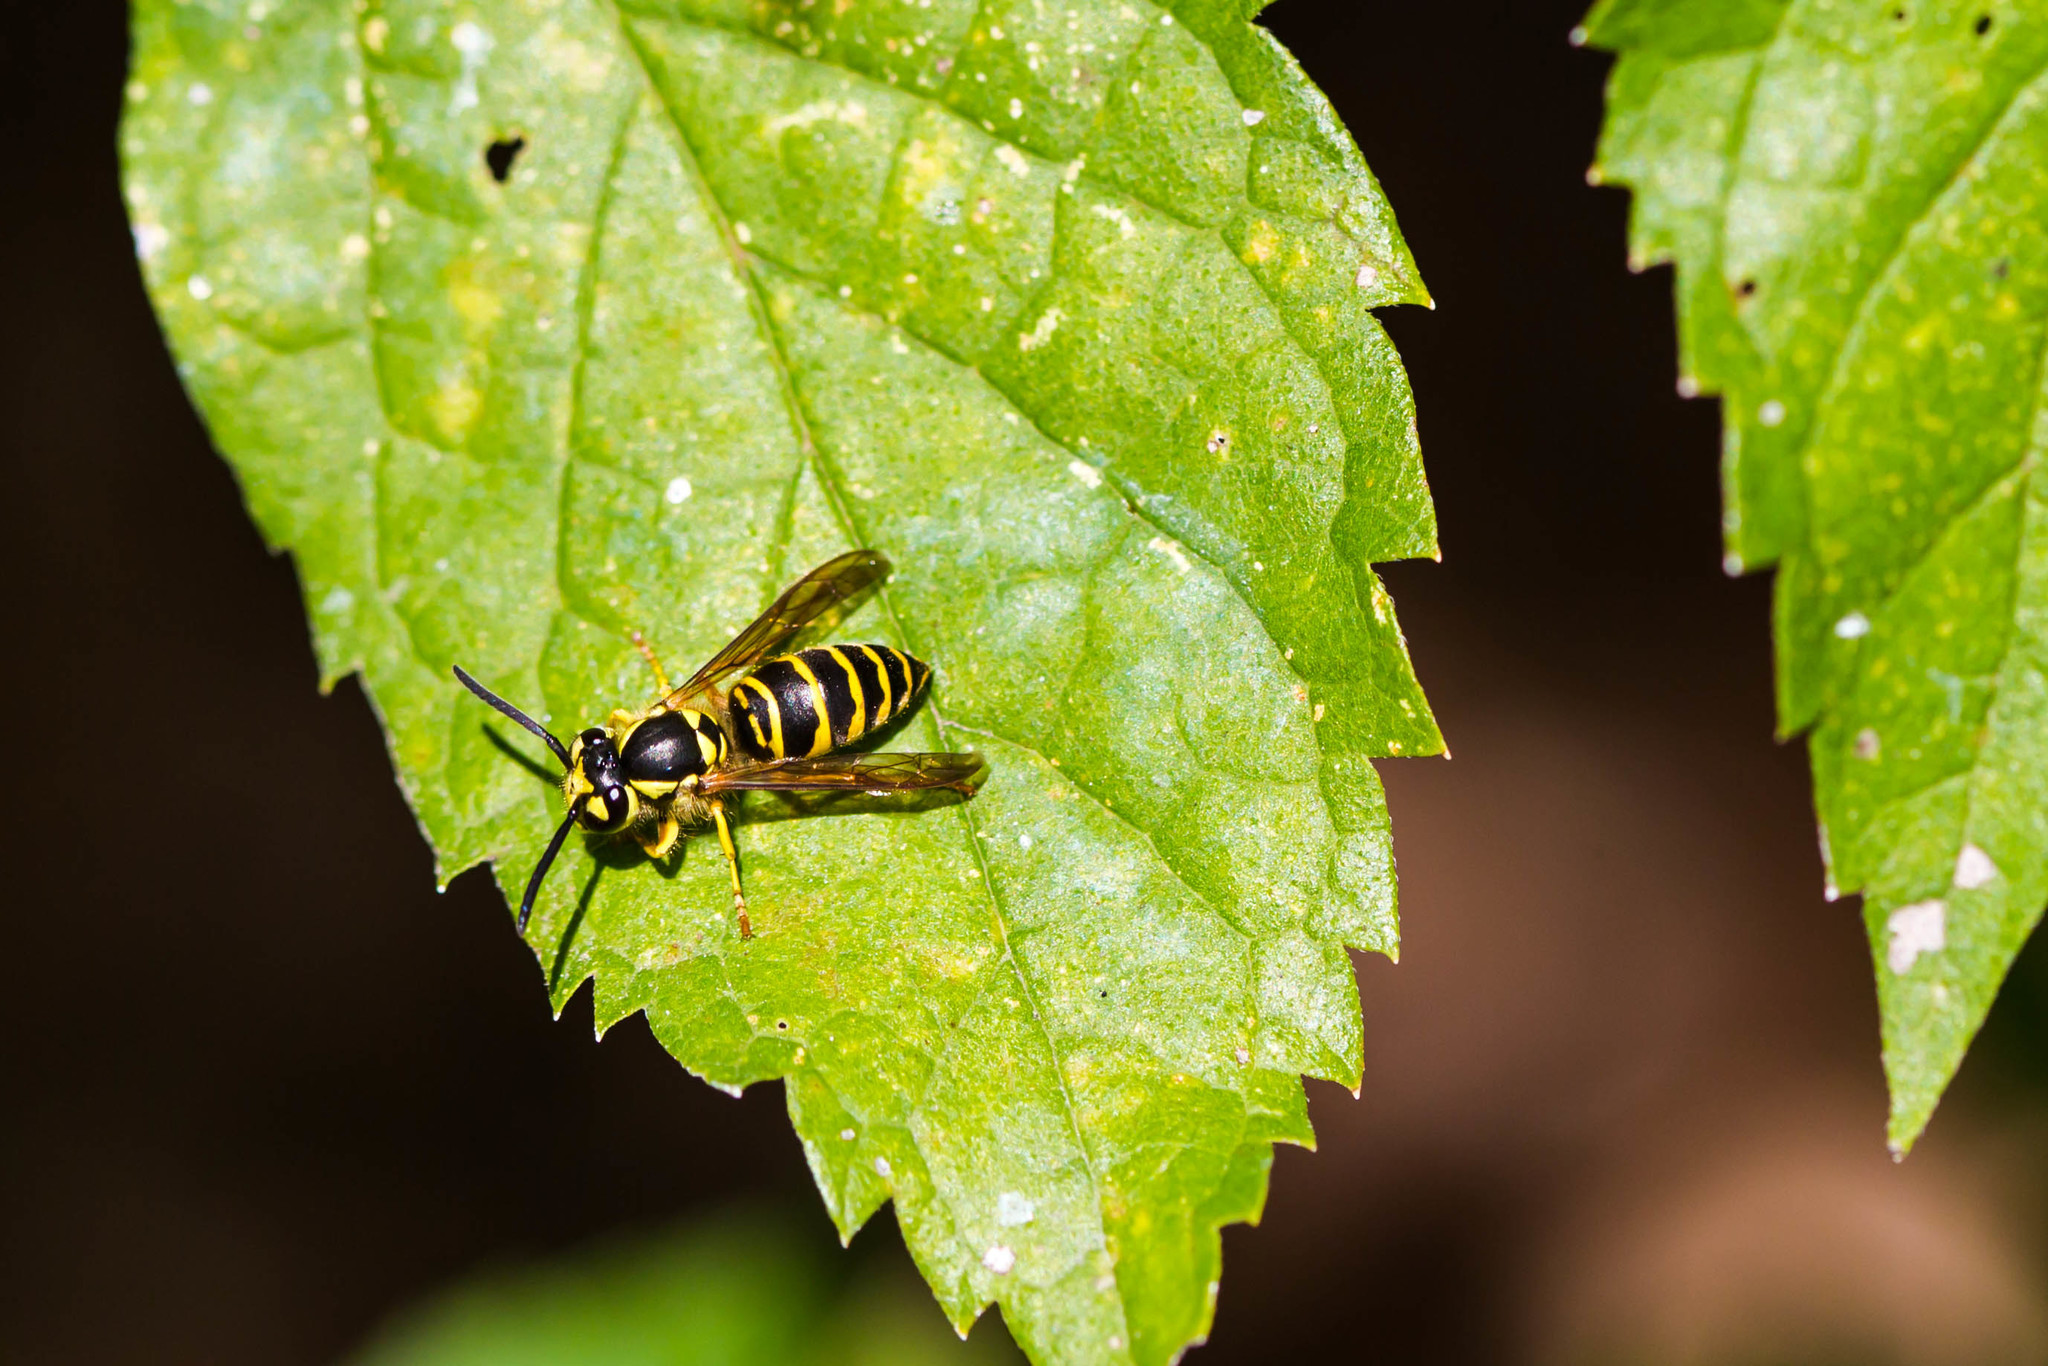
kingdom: Animalia
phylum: Arthropoda
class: Insecta
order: Hymenoptera
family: Vespidae
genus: Vespula
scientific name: Vespula maculifrons
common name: Eastern yellowjacket
